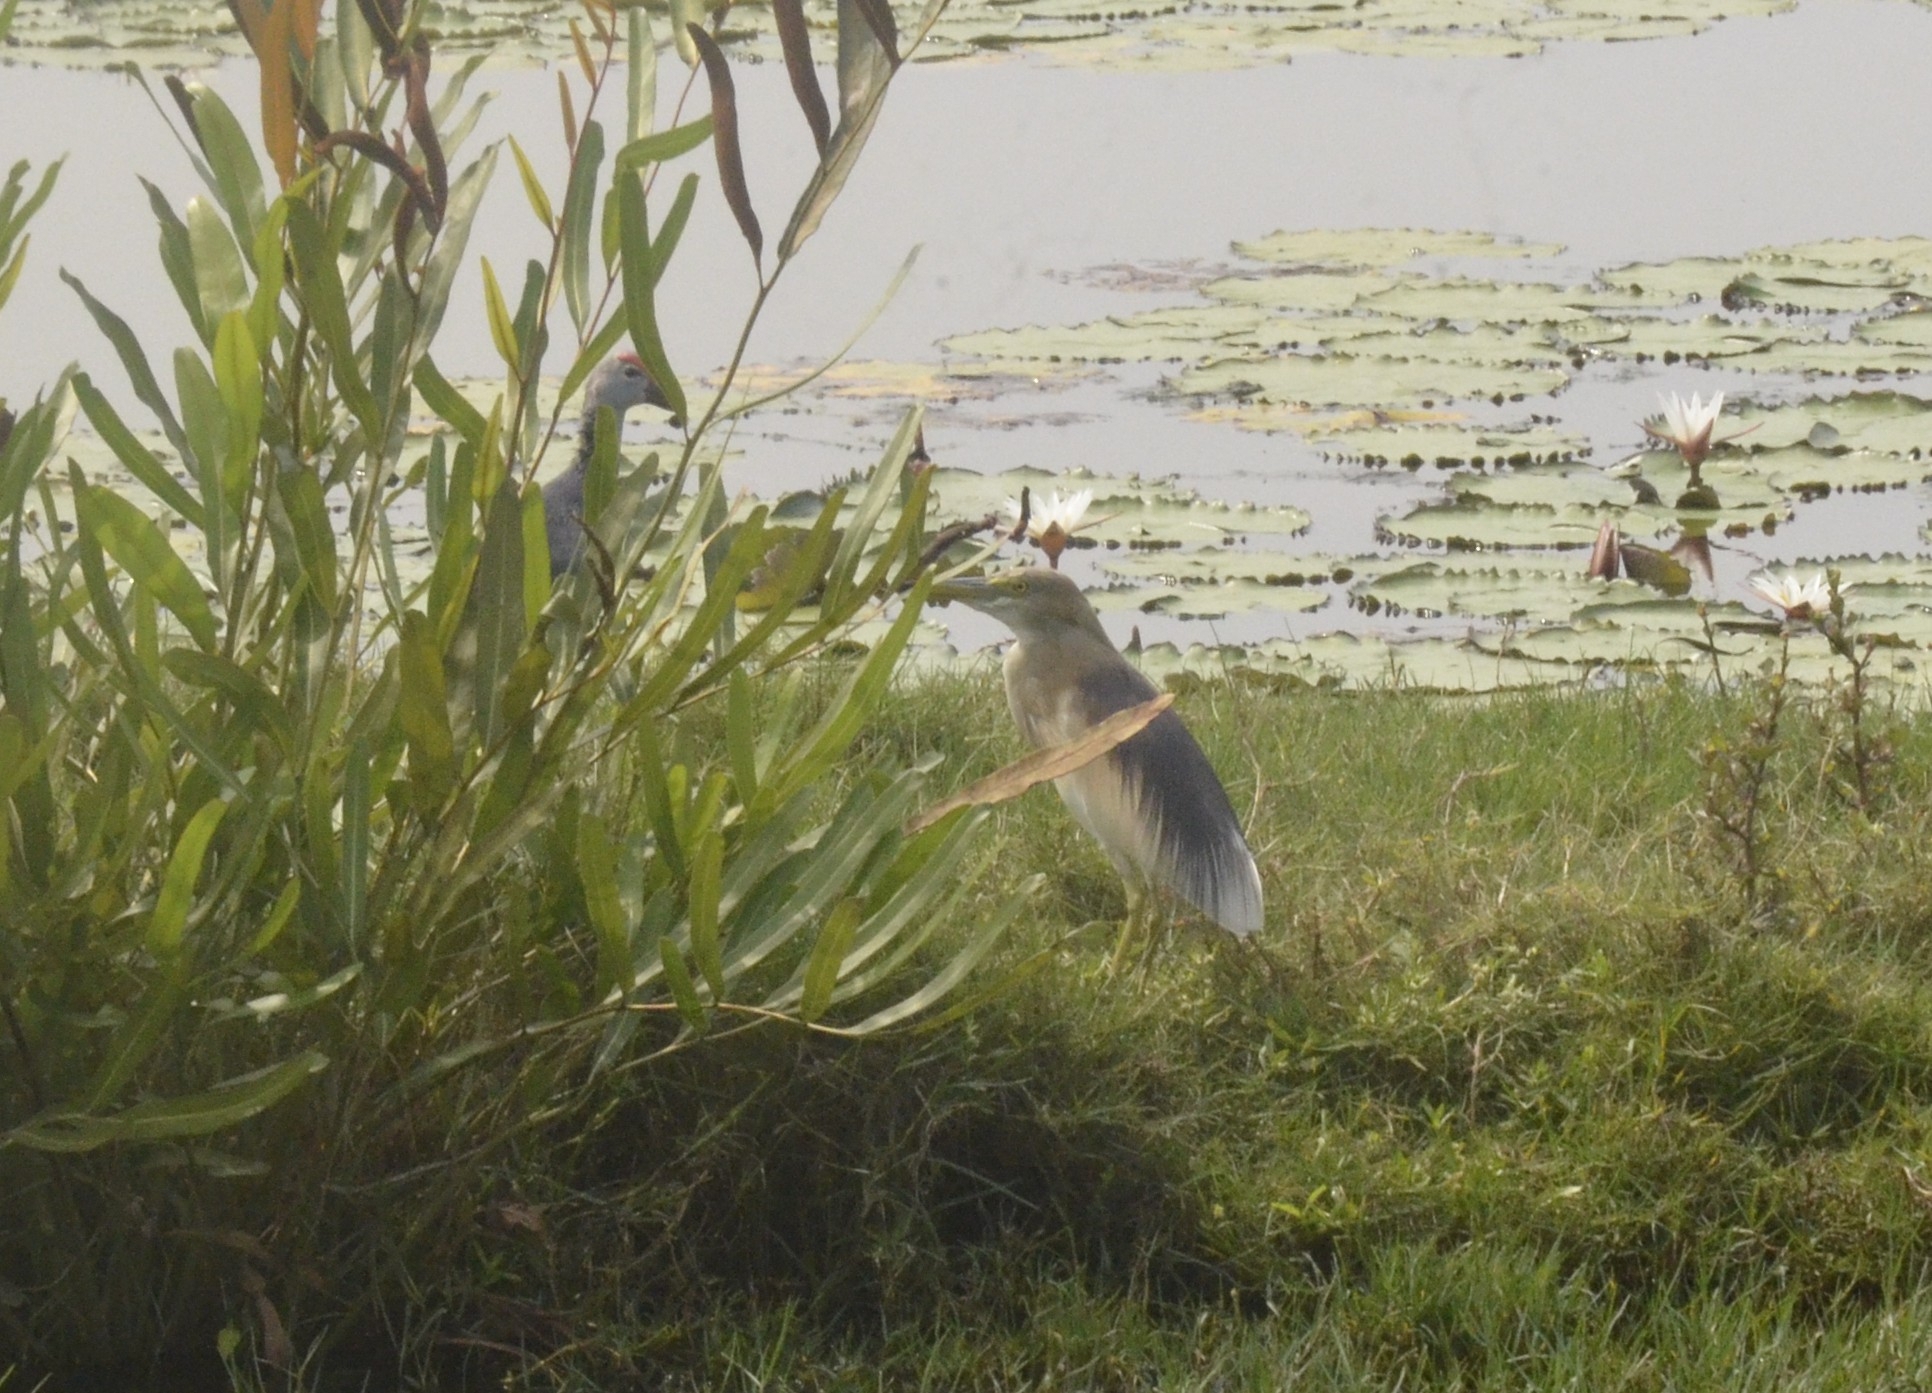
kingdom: Animalia
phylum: Chordata
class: Aves
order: Pelecaniformes
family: Ardeidae
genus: Ardeola
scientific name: Ardeola grayii
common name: Indian pond heron
